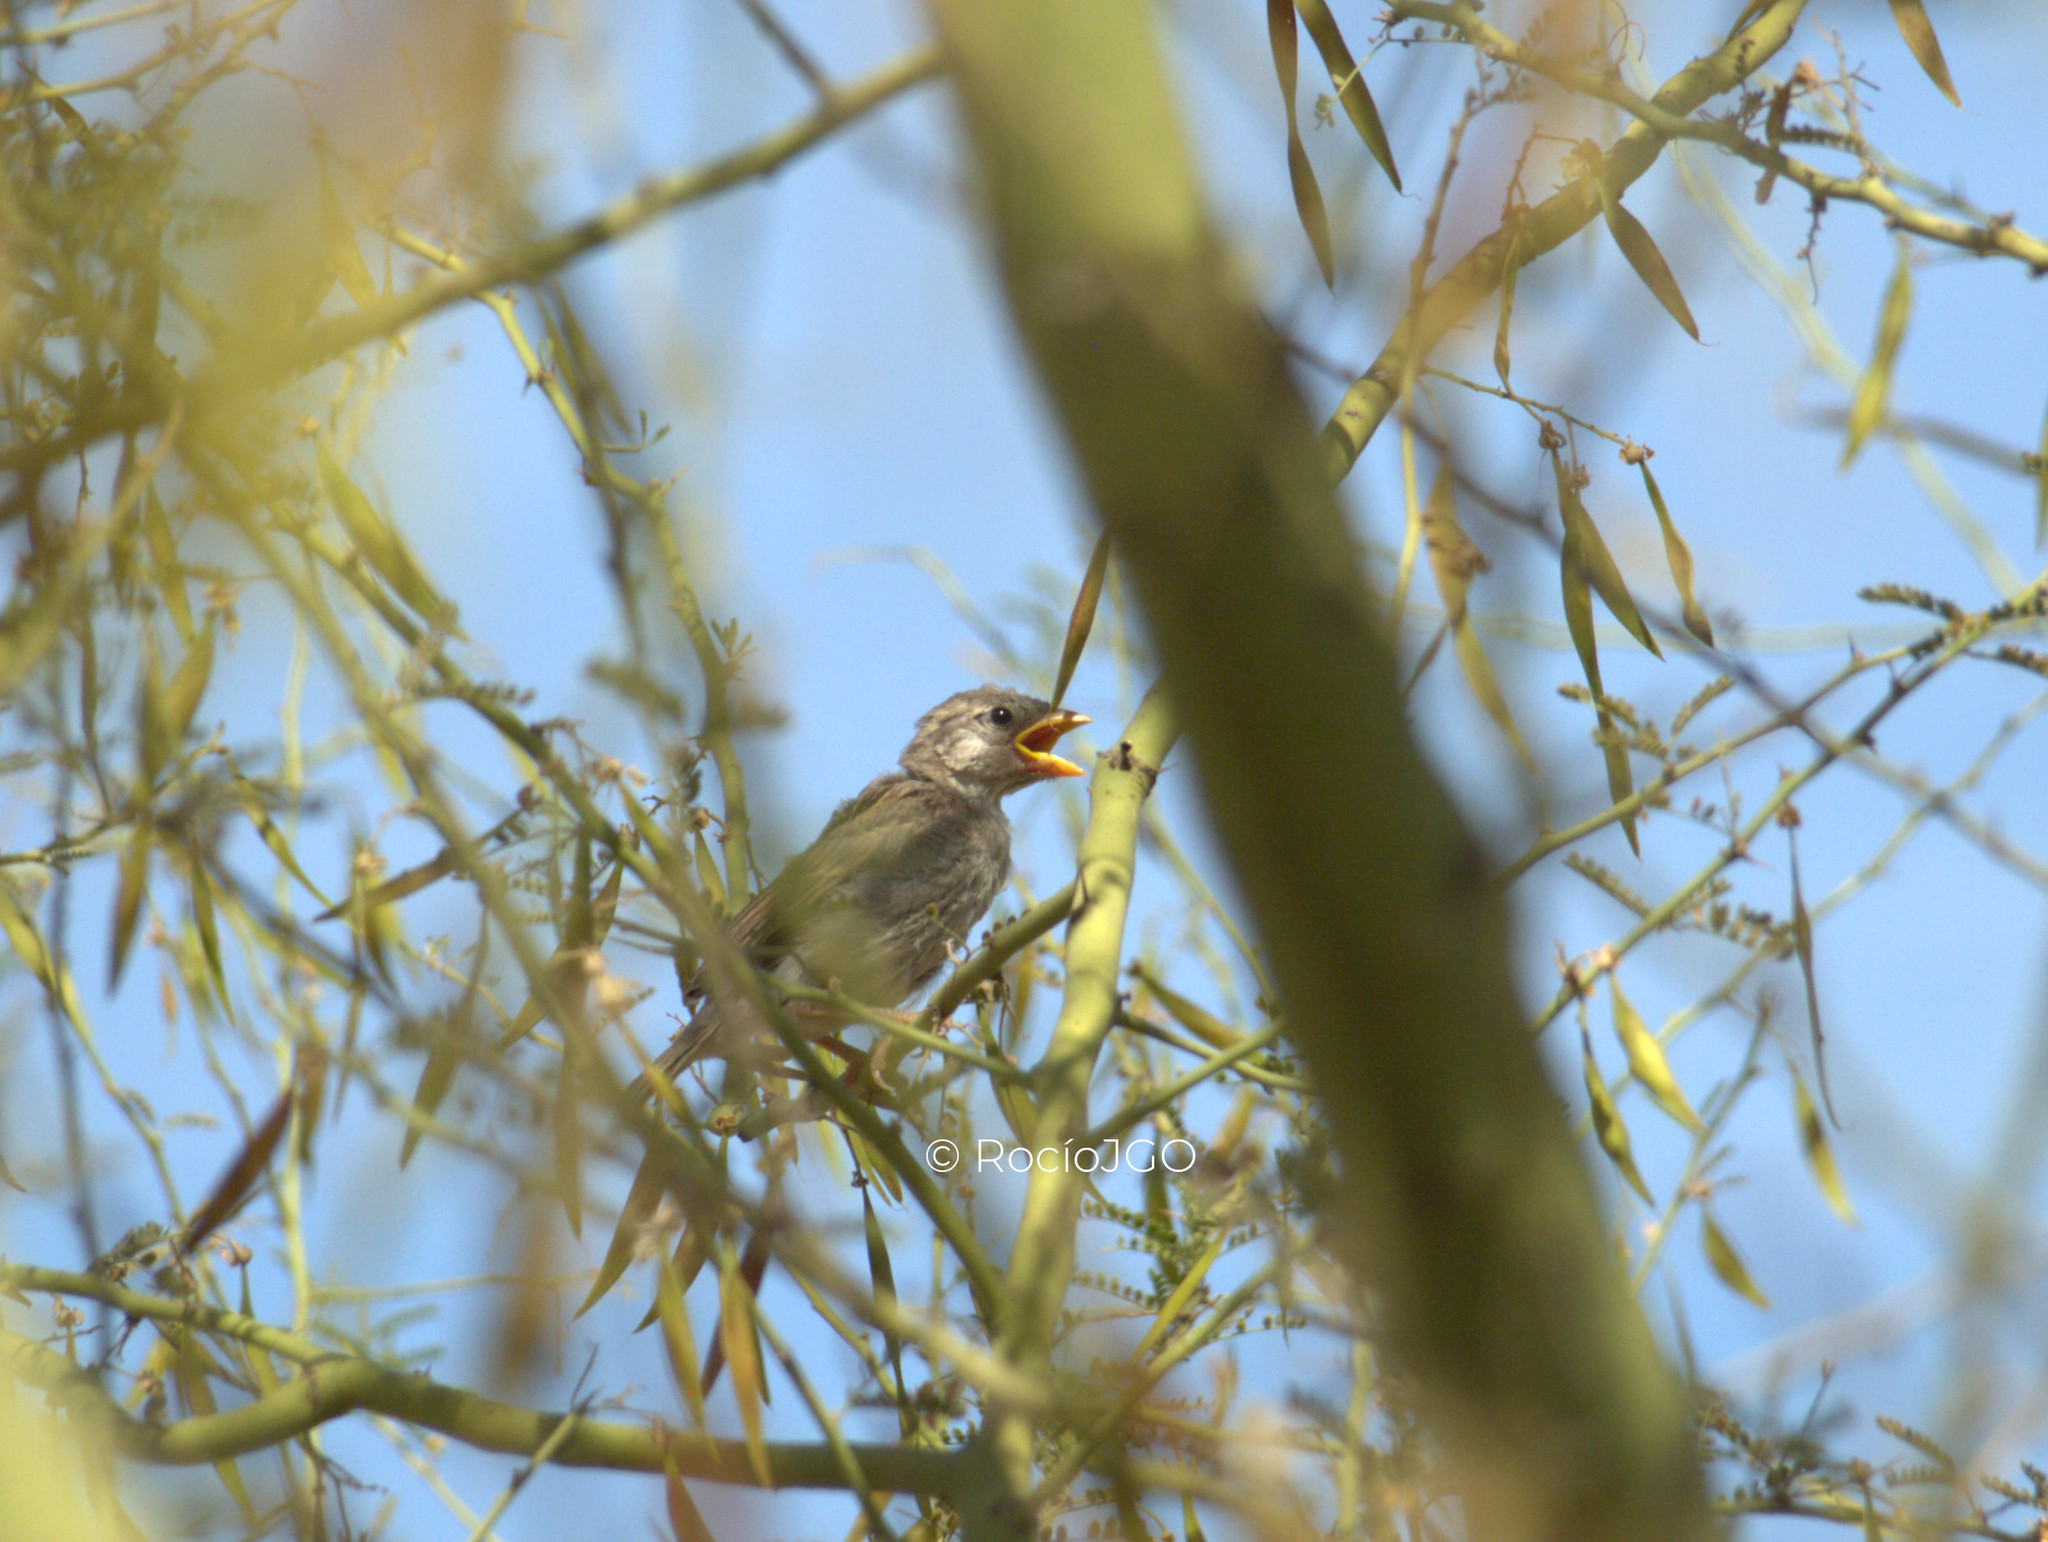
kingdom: Animalia
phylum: Chordata
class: Aves
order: Passeriformes
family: Passeridae
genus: Passer
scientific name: Passer domesticus
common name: House sparrow
